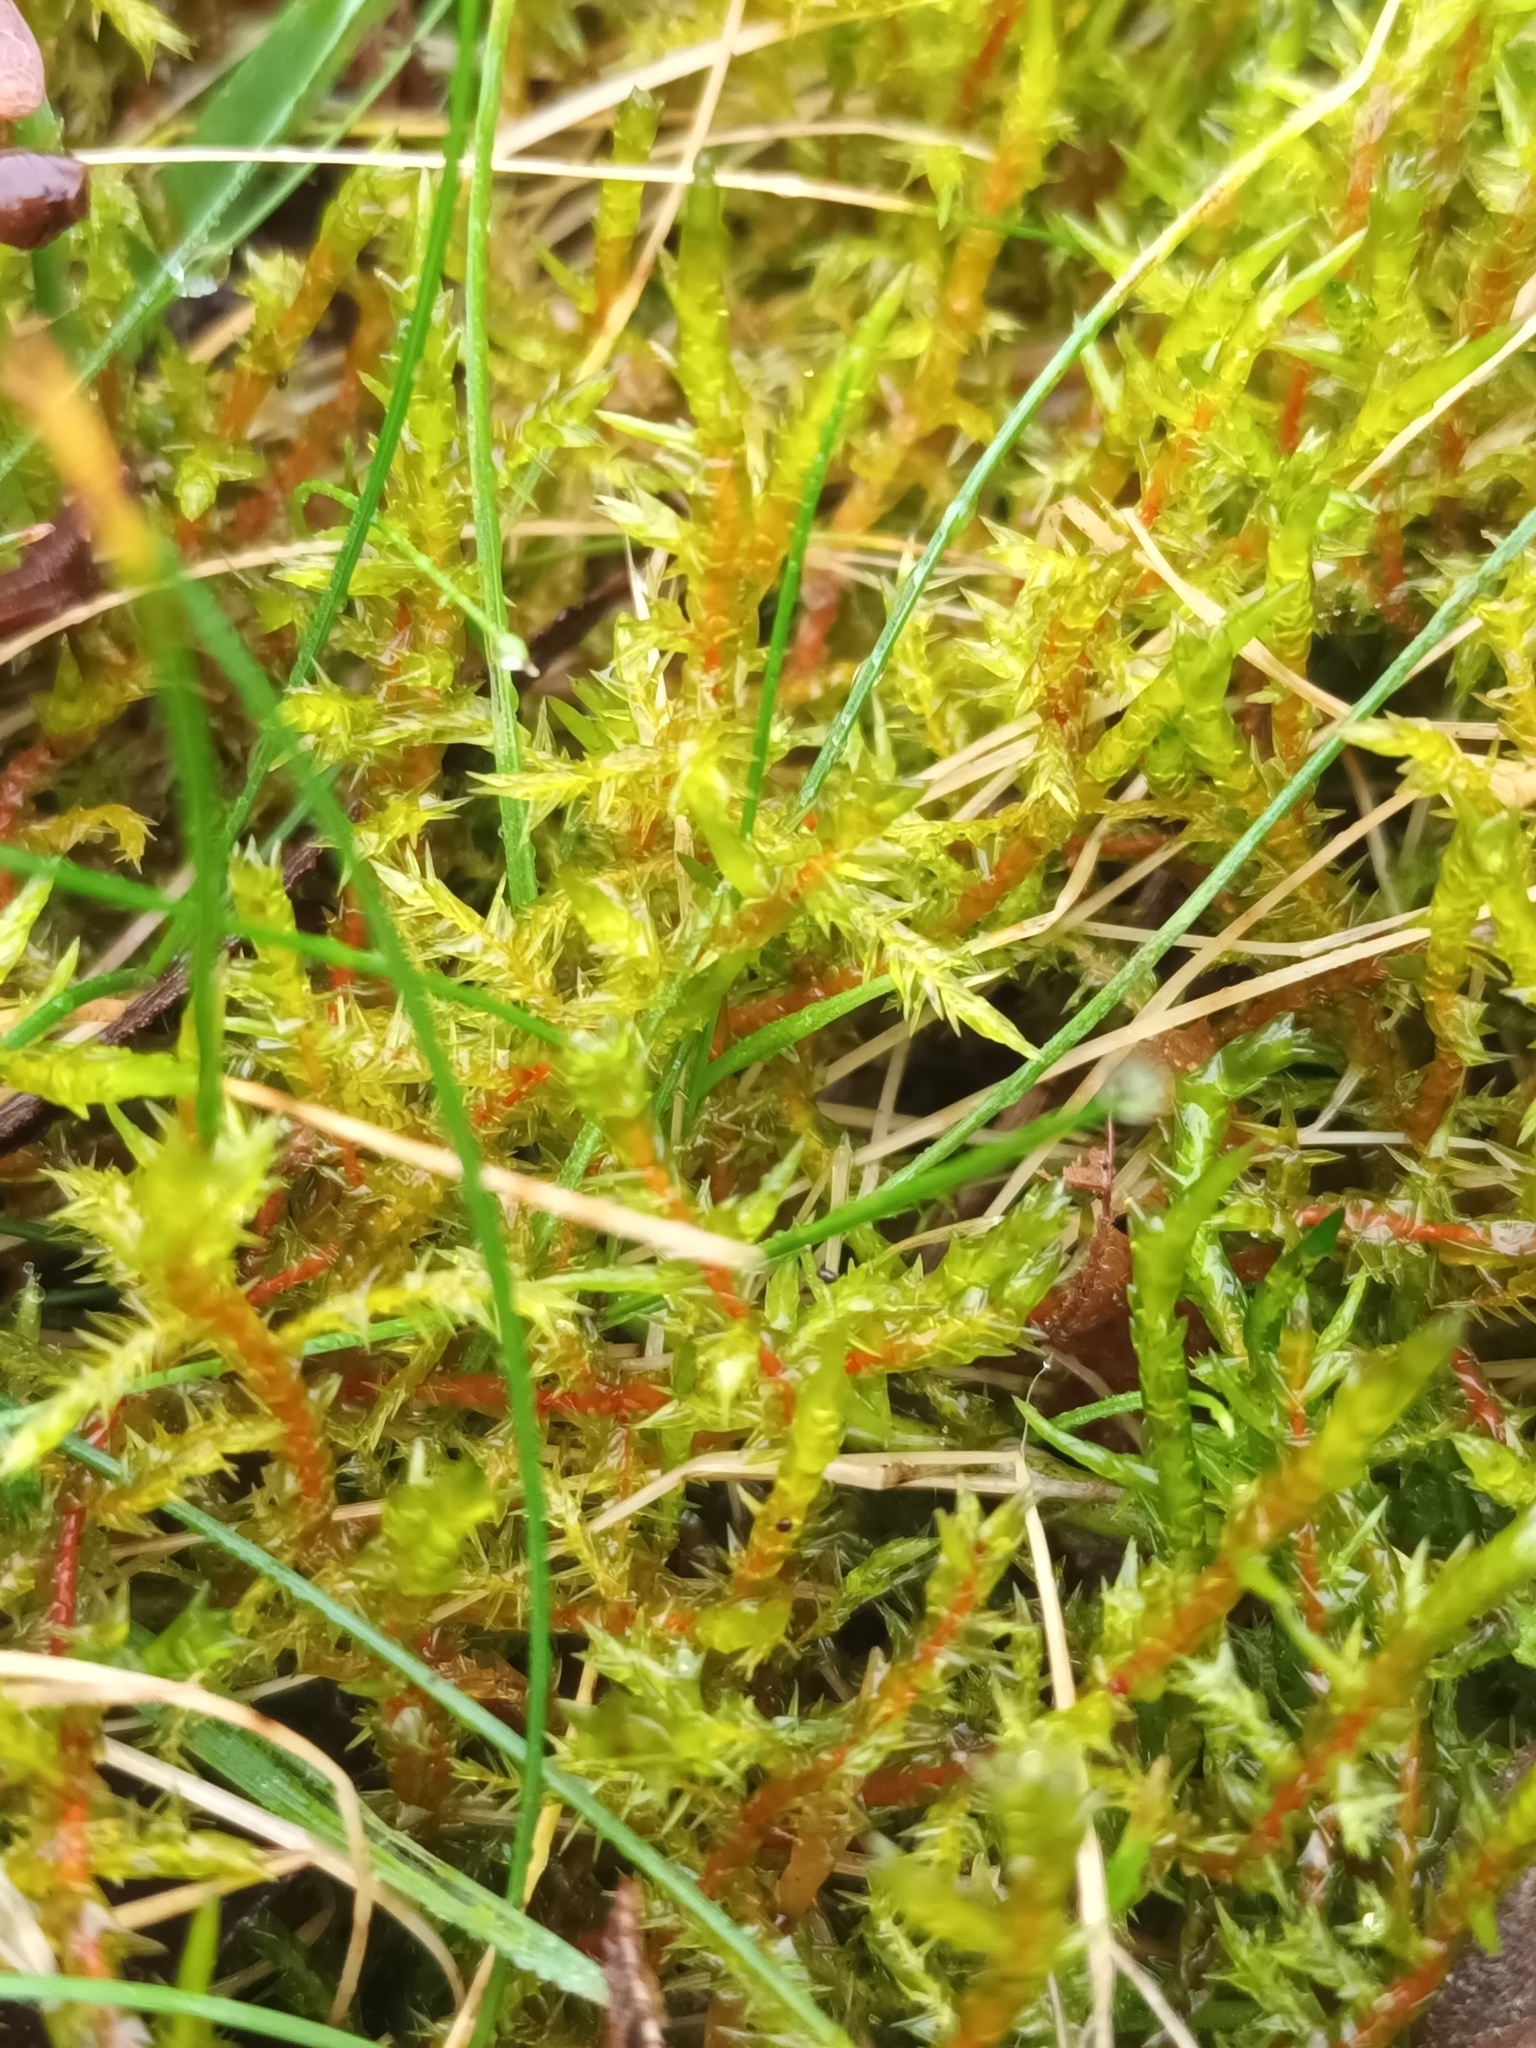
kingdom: Plantae
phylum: Bryophyta
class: Bryopsida
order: Hypnales
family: Pylaisiaceae
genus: Calliergonella
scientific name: Calliergonella cuspidata
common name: Common large wetland moss
